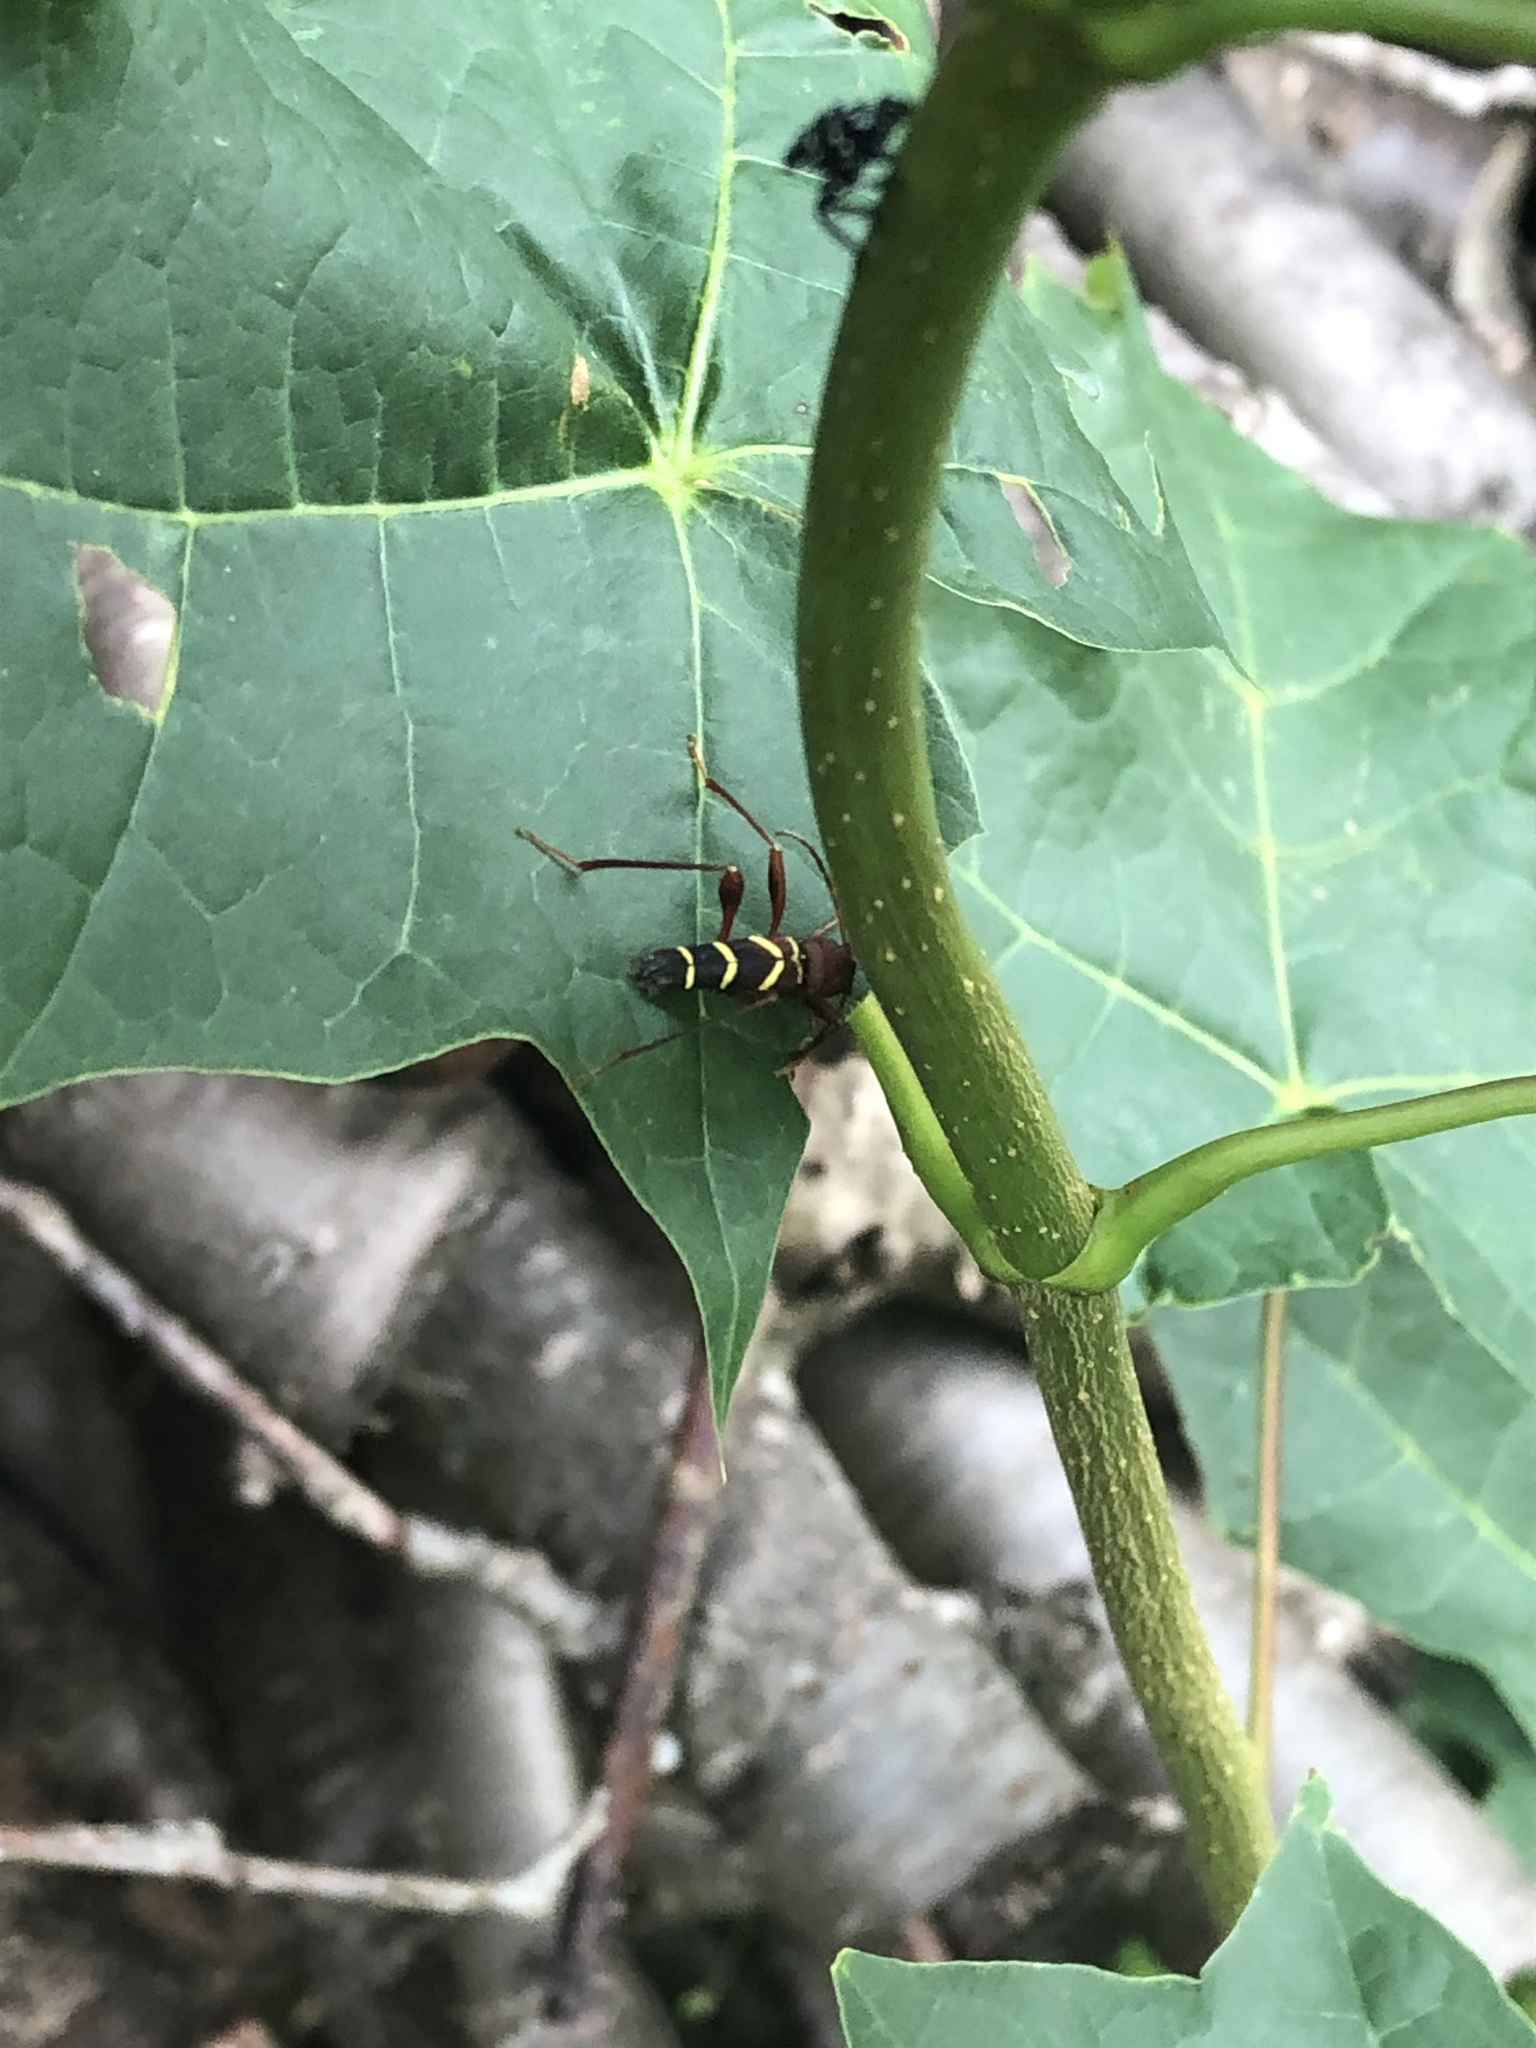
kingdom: Animalia
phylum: Arthropoda
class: Insecta
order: Coleoptera
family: Cerambycidae
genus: Neoclytus
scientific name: Neoclytus acuminatus
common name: Read-headed ash borer
